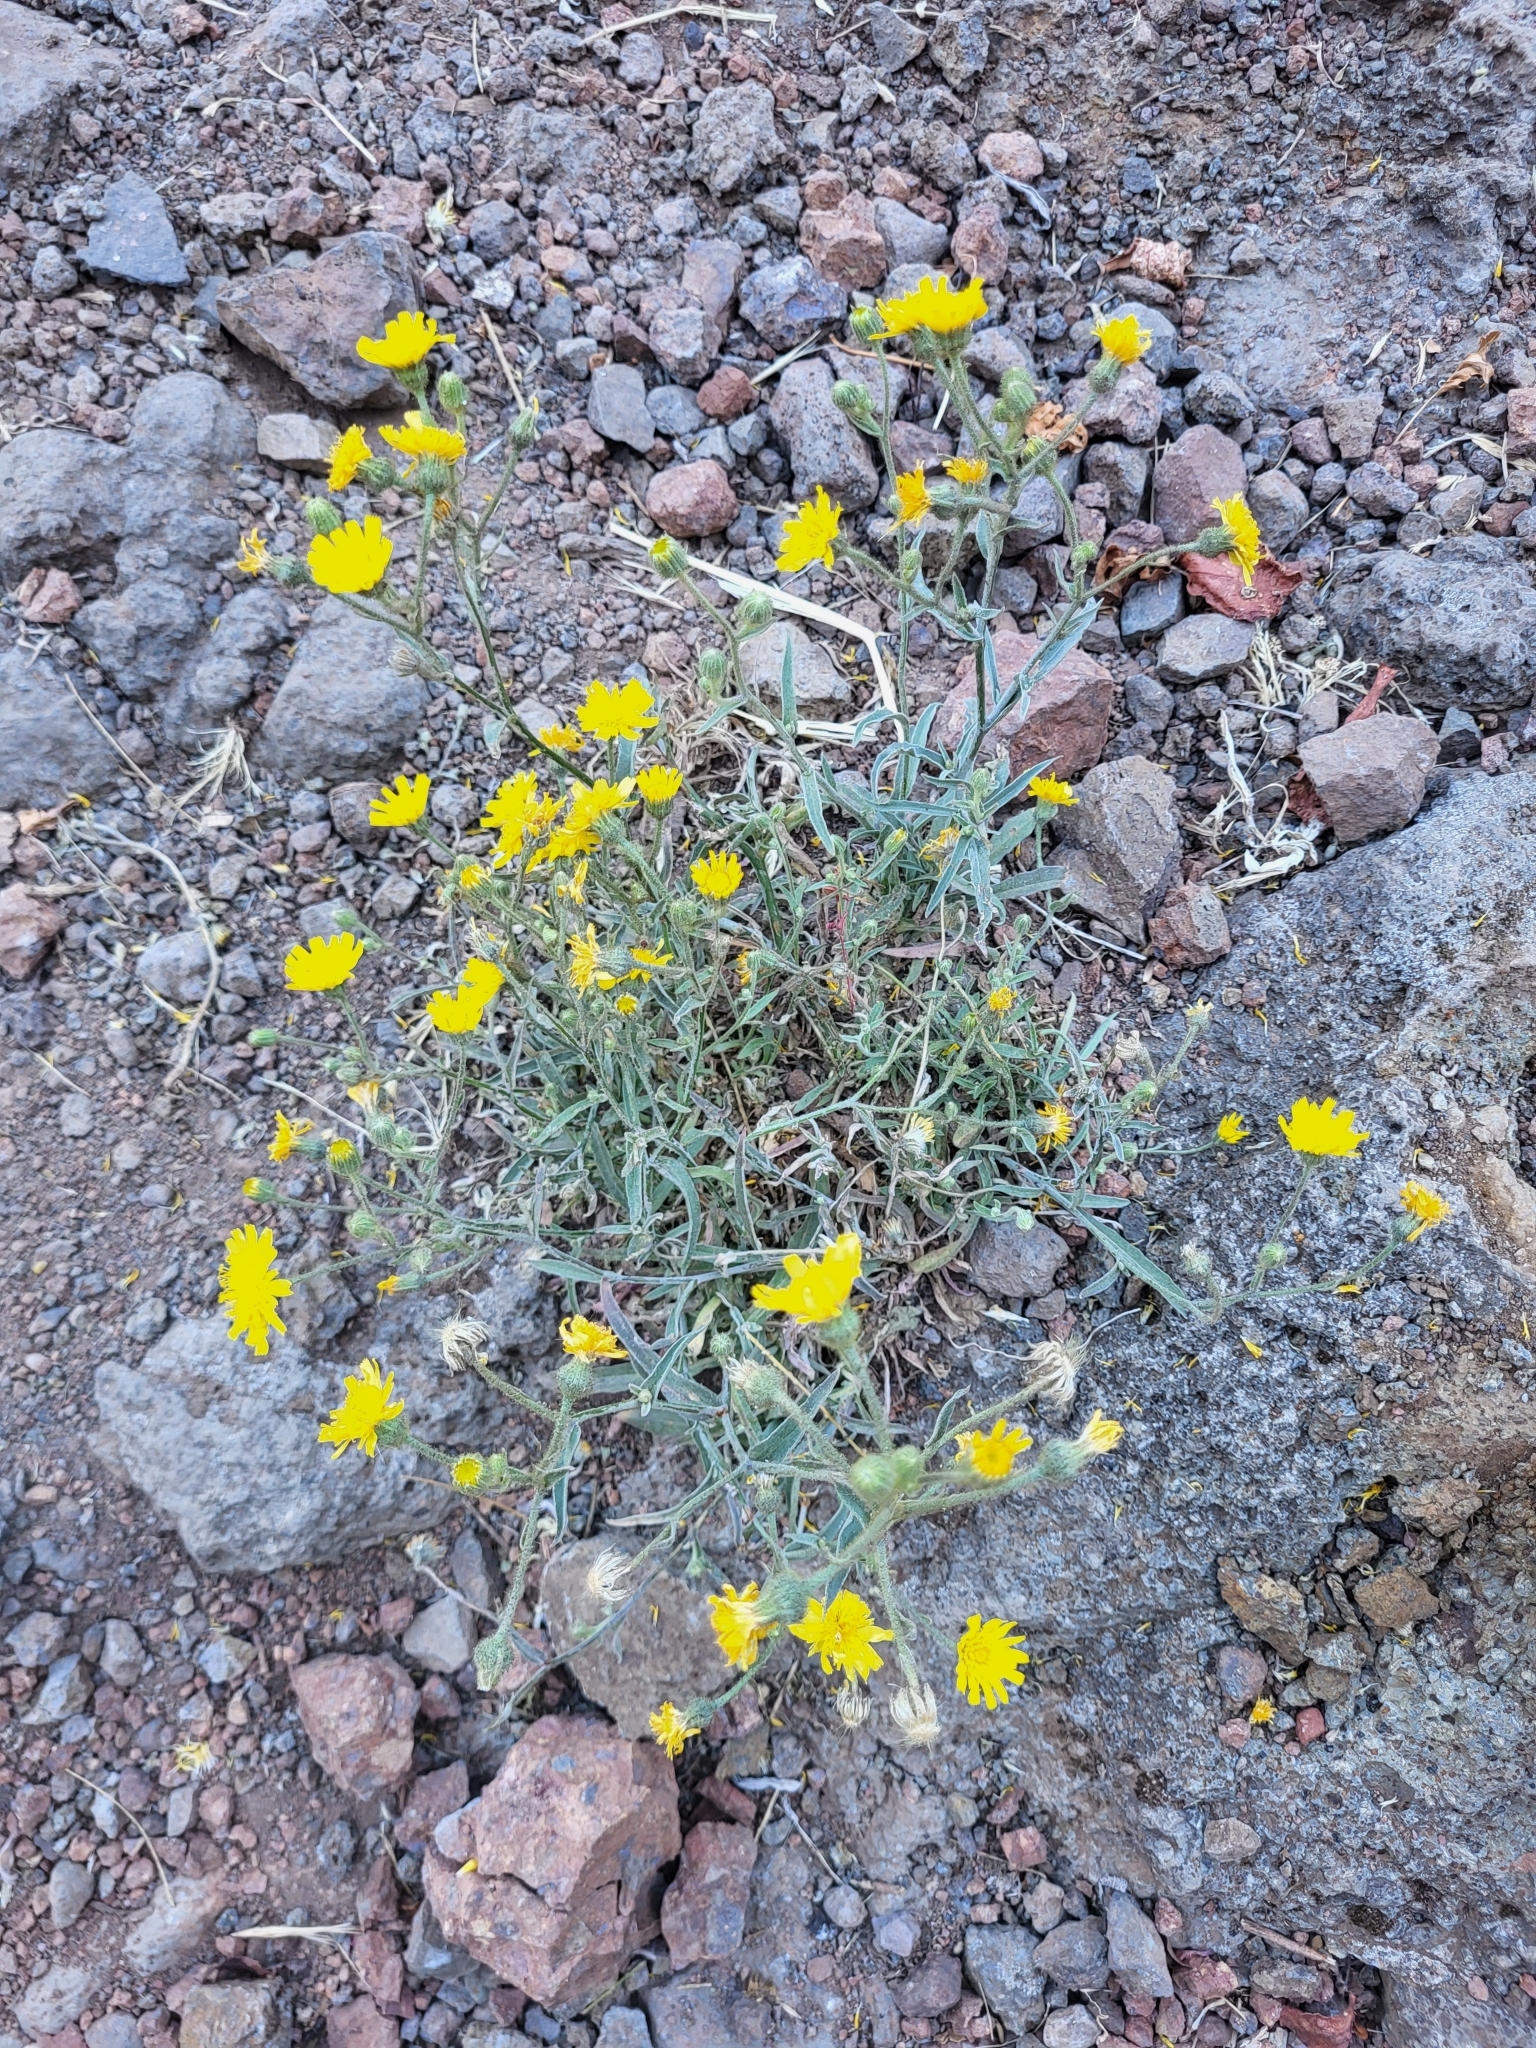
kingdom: Plantae
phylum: Tracheophyta
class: Magnoliopsida
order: Asterales
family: Asteraceae
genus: Andryala
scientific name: Andryala glandulosa
